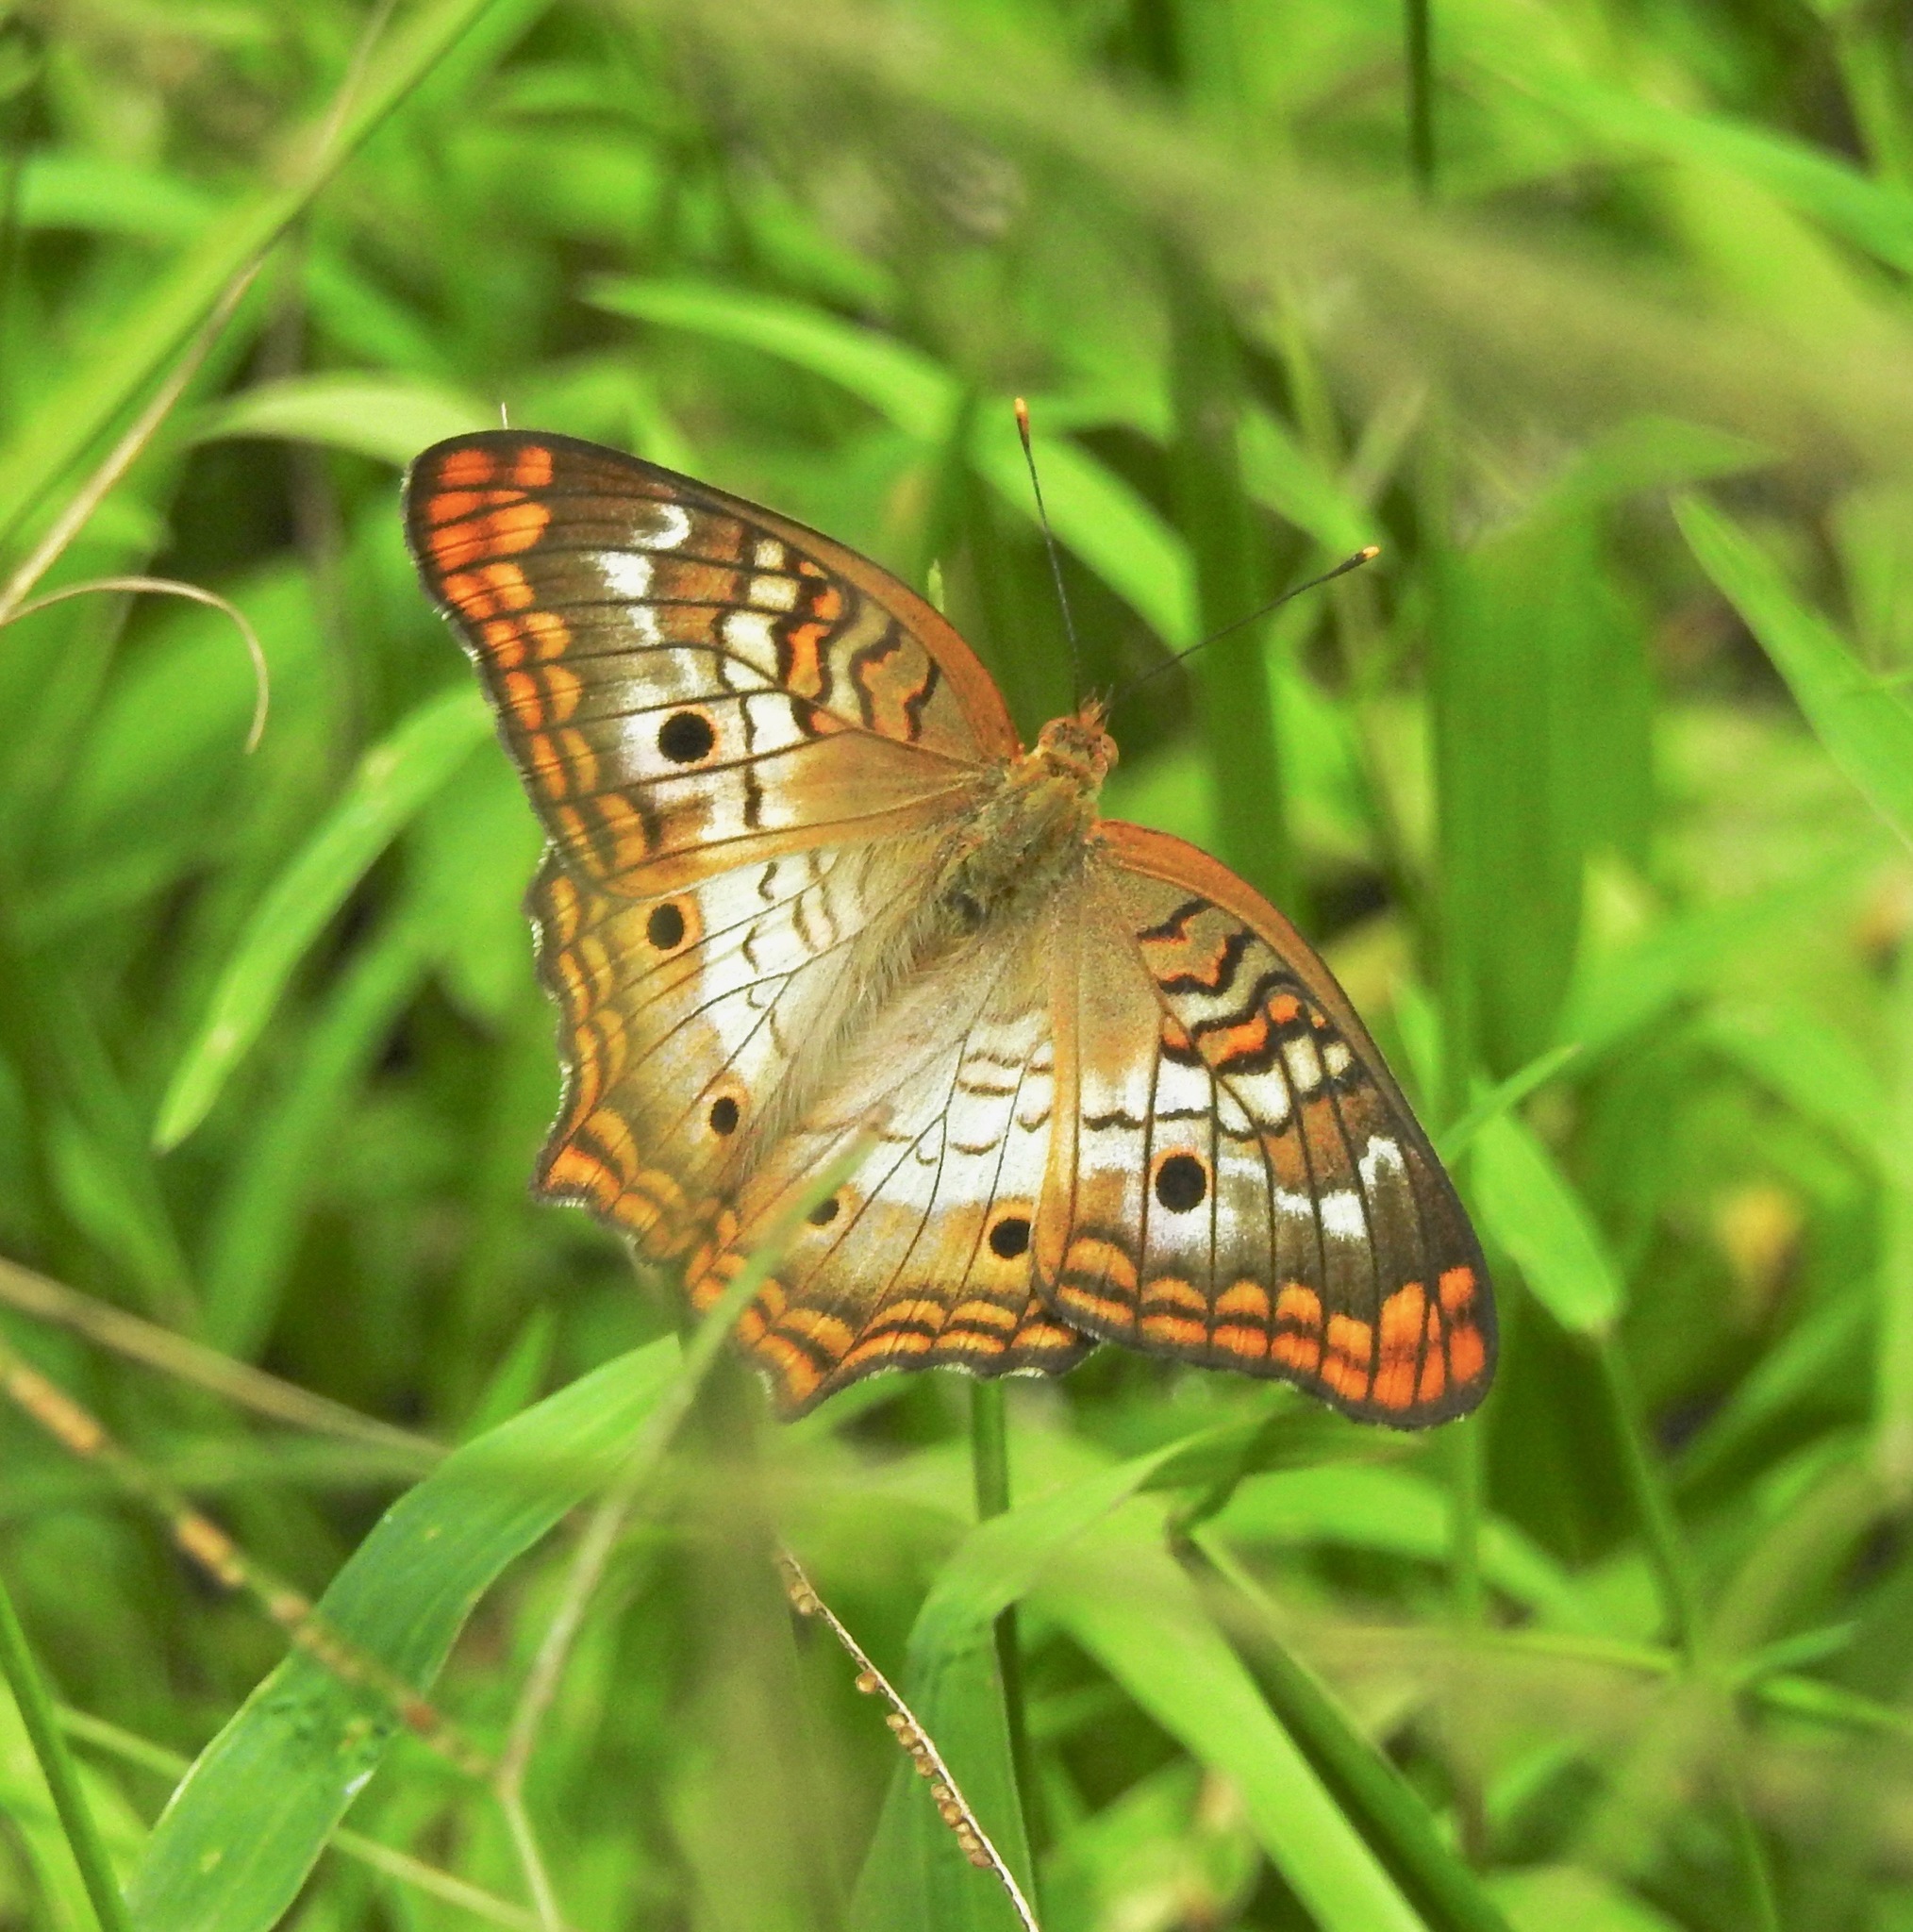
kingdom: Animalia
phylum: Arthropoda
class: Insecta
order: Lepidoptera
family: Nymphalidae
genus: Anartia
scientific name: Anartia jatrophae
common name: White peacock
